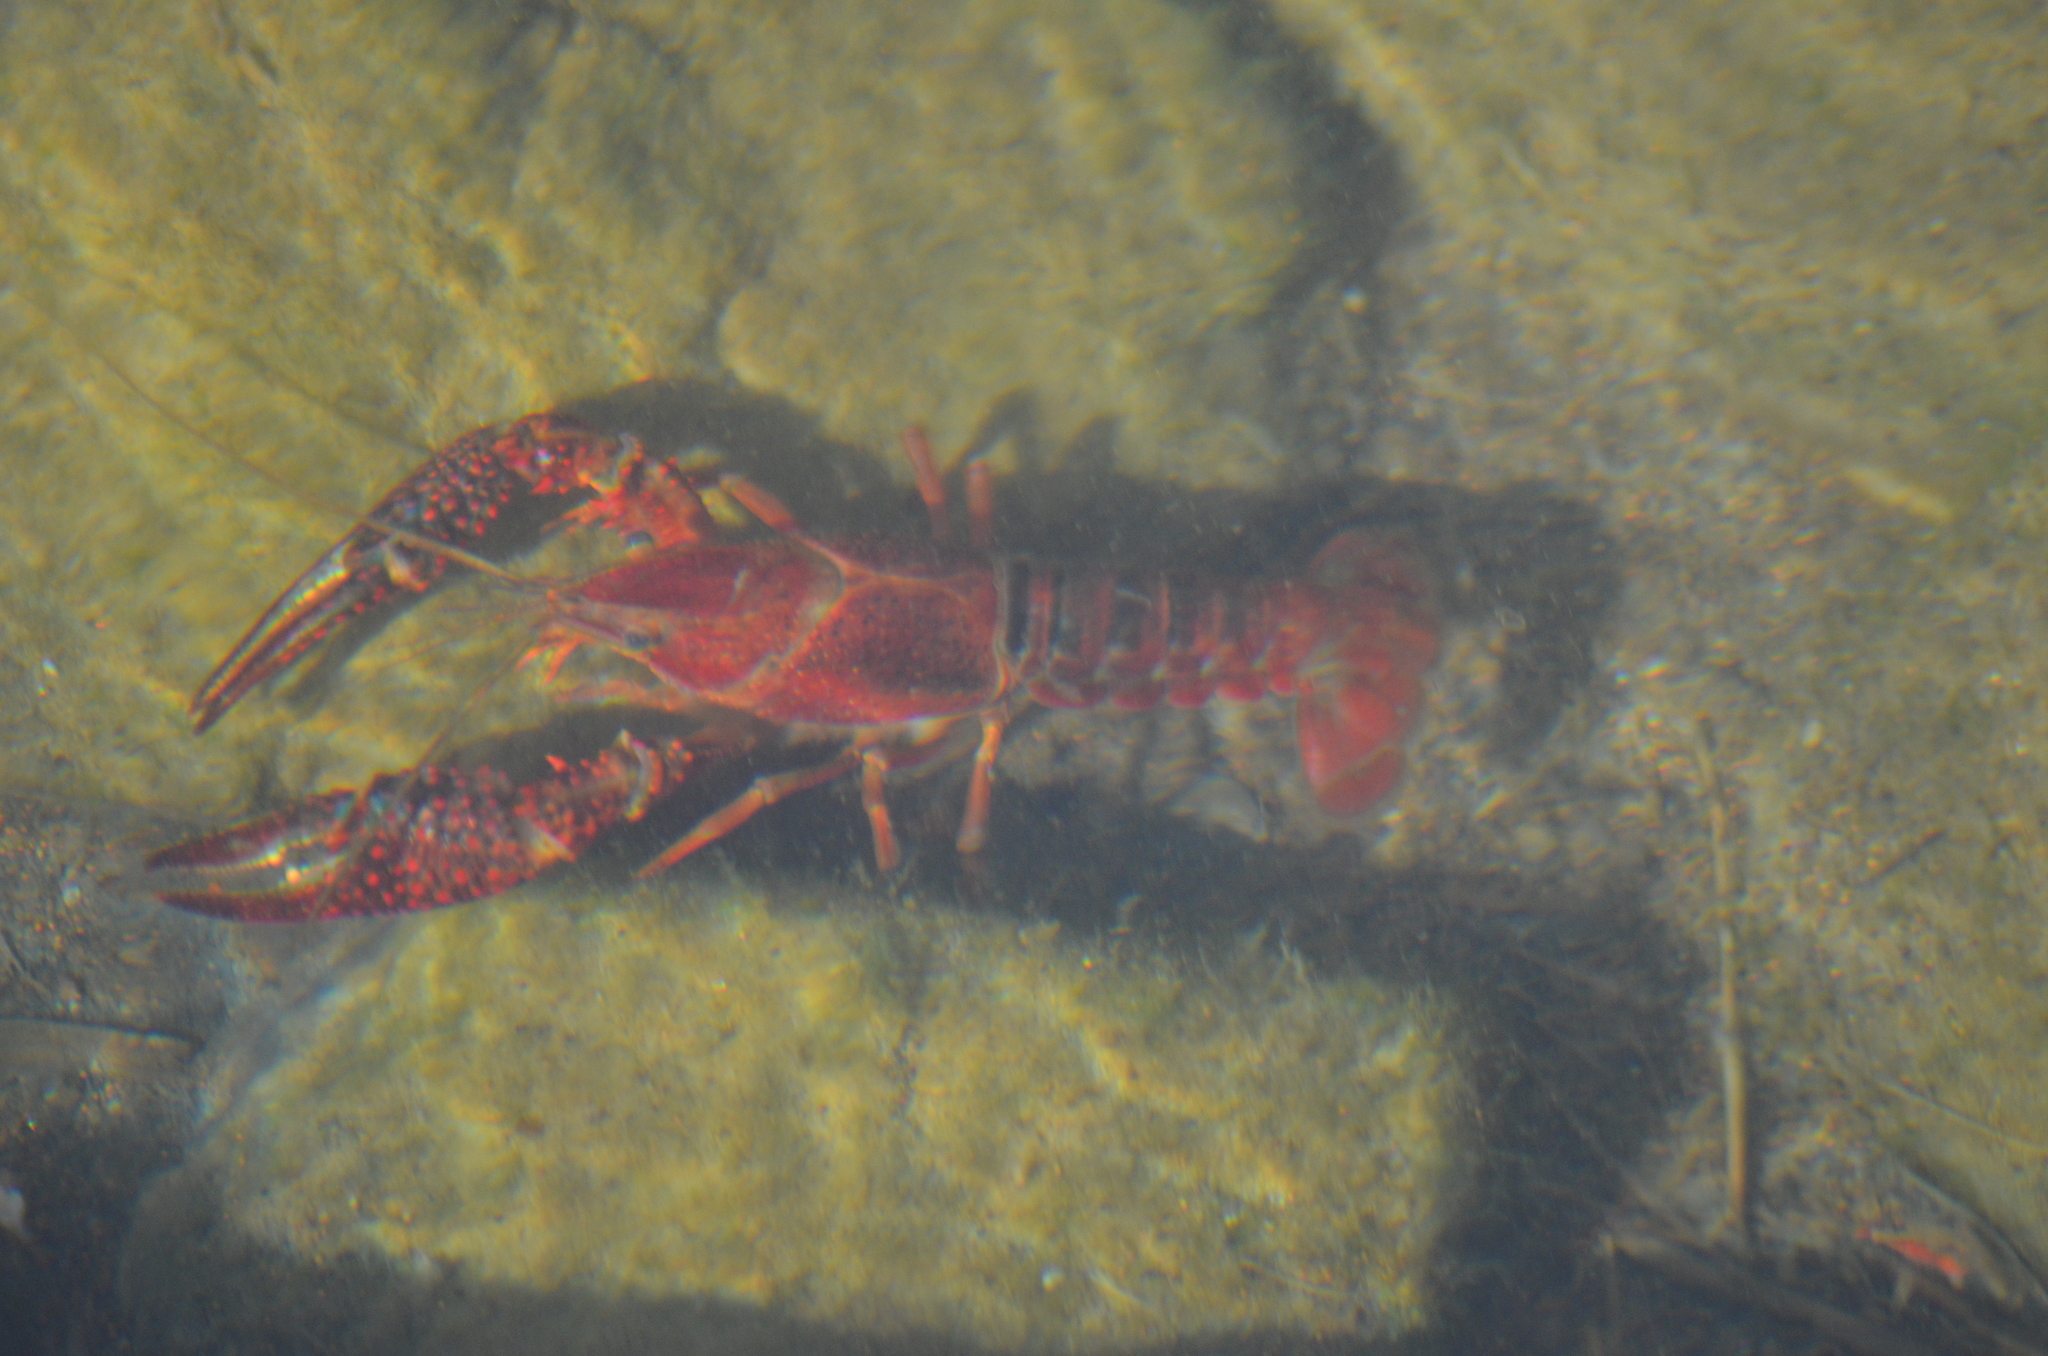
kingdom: Animalia
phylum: Arthropoda
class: Malacostraca
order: Decapoda
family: Cambaridae
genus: Procambarus
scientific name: Procambarus clarkii
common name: Red swamp crayfish
